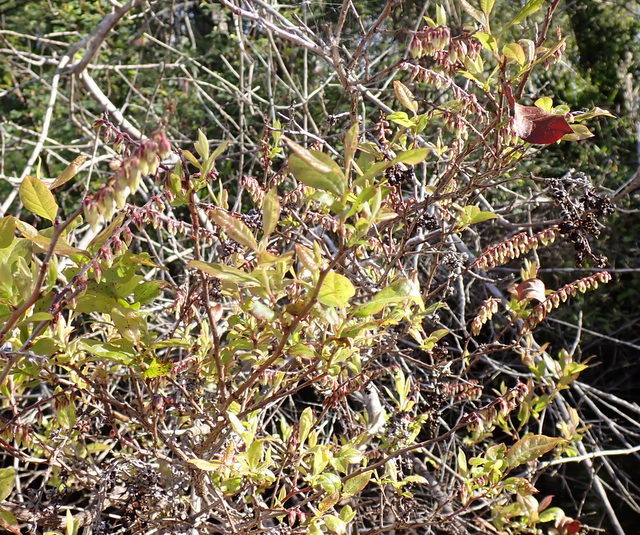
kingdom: Plantae
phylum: Tracheophyta
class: Magnoliopsida
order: Ericales
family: Ericaceae
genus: Eubotrys
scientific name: Eubotrys racemosa
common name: Fetterbush
